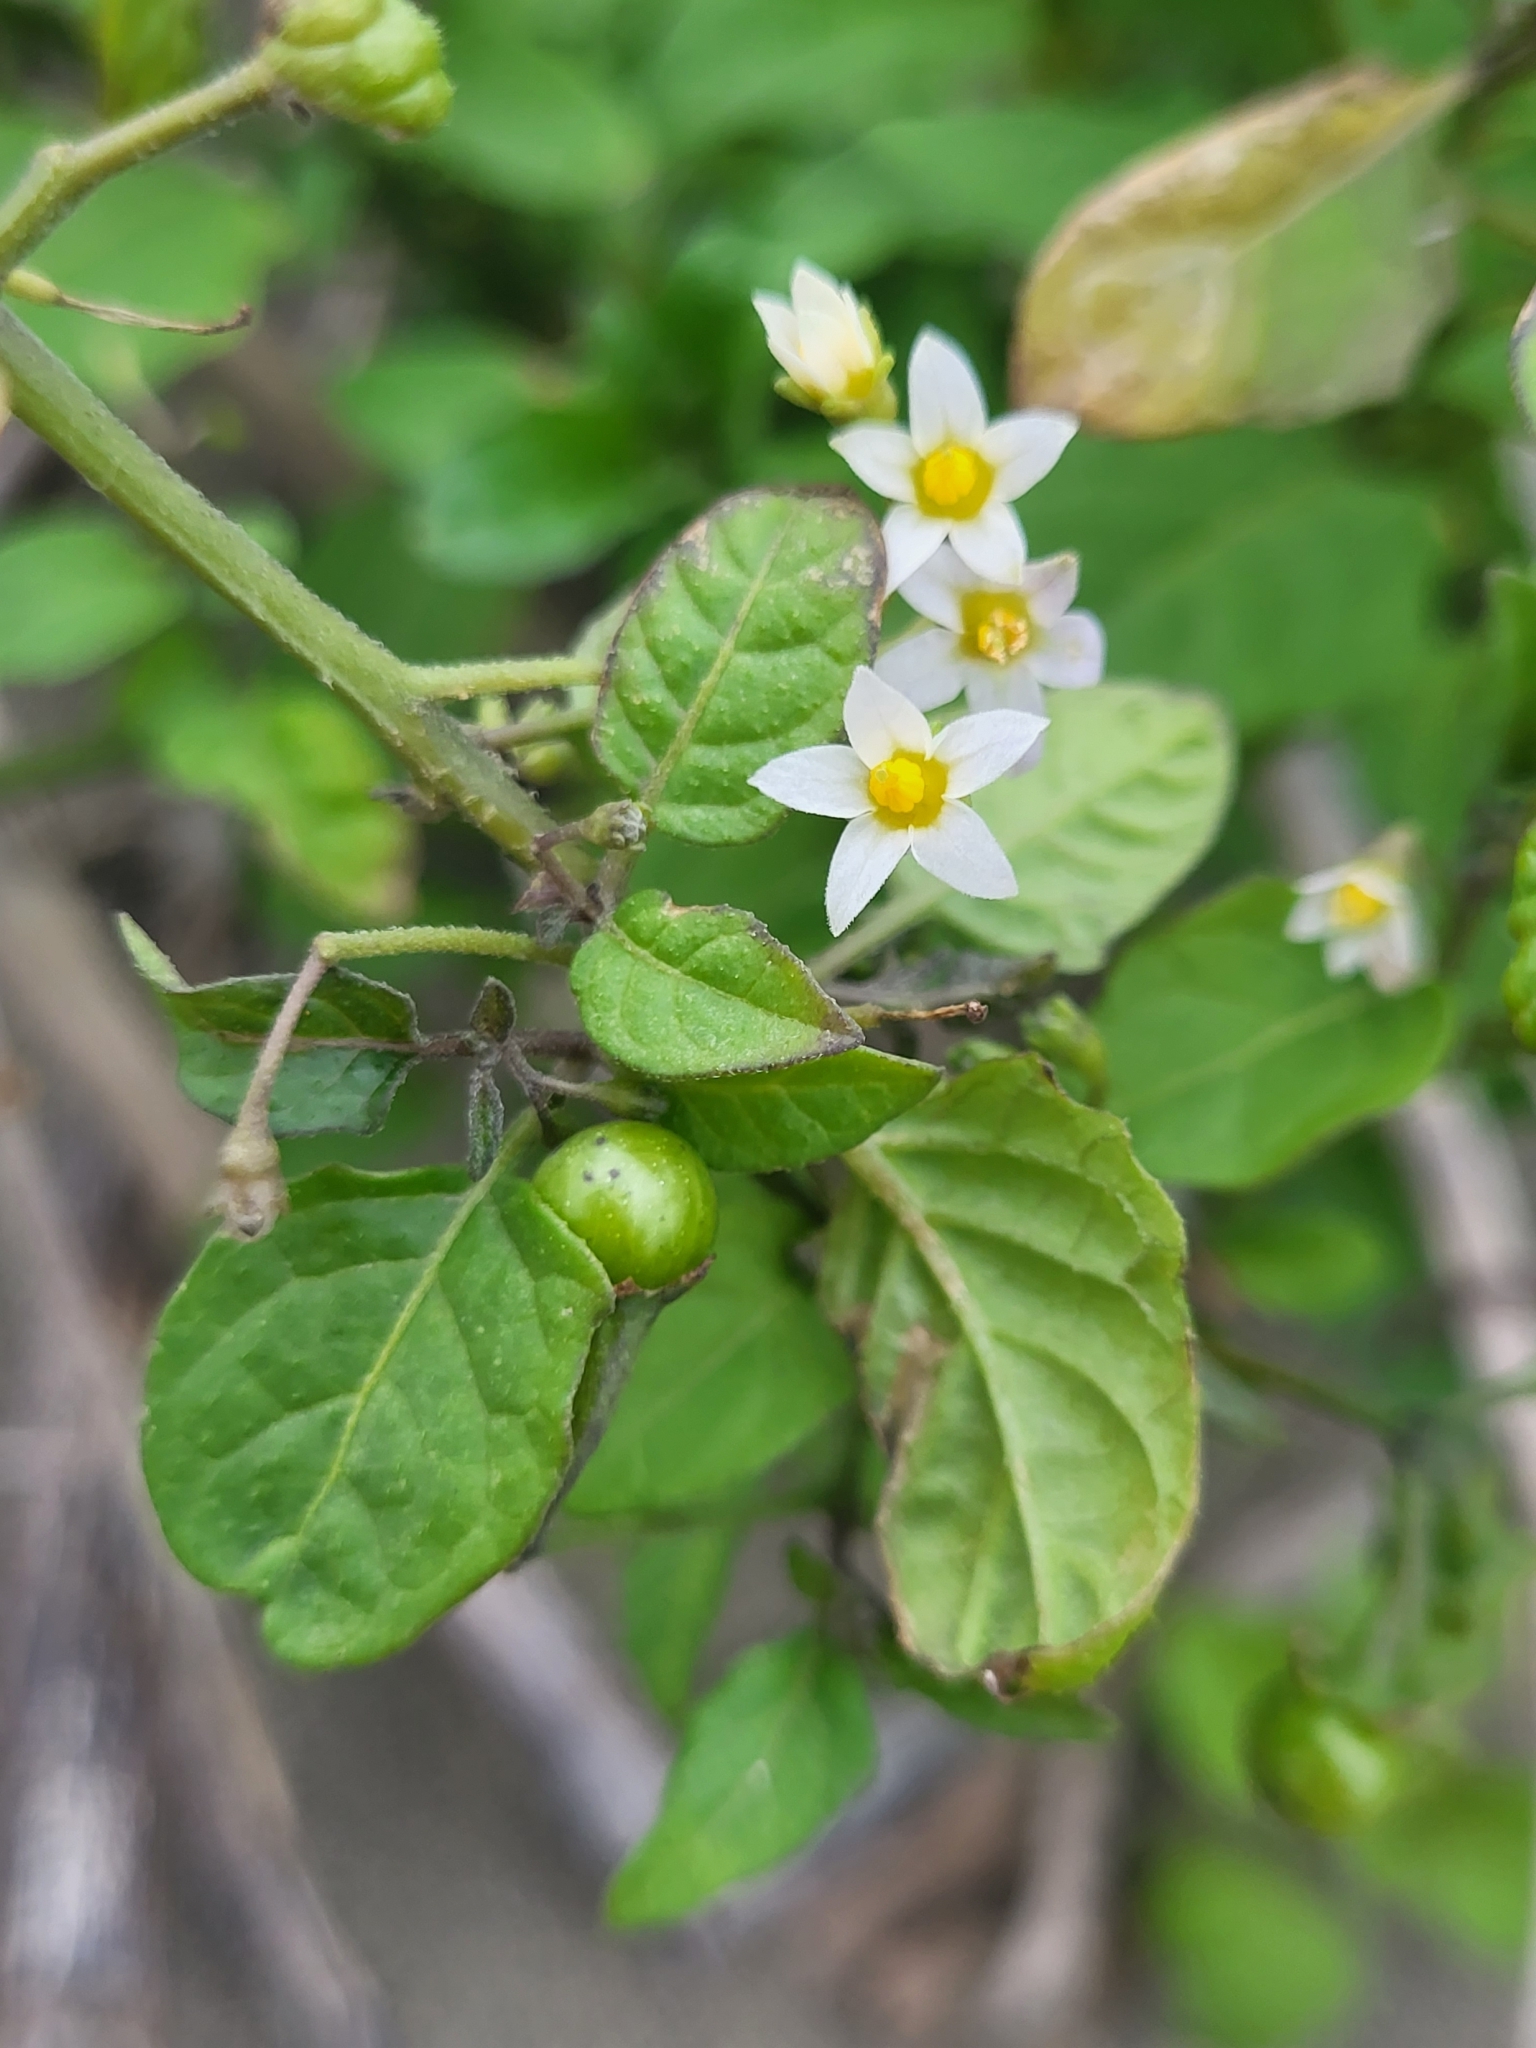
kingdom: Plantae
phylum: Tracheophyta
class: Magnoliopsida
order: Solanales
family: Solanaceae
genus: Solanum
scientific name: Solanum americanum
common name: American black nightshade
